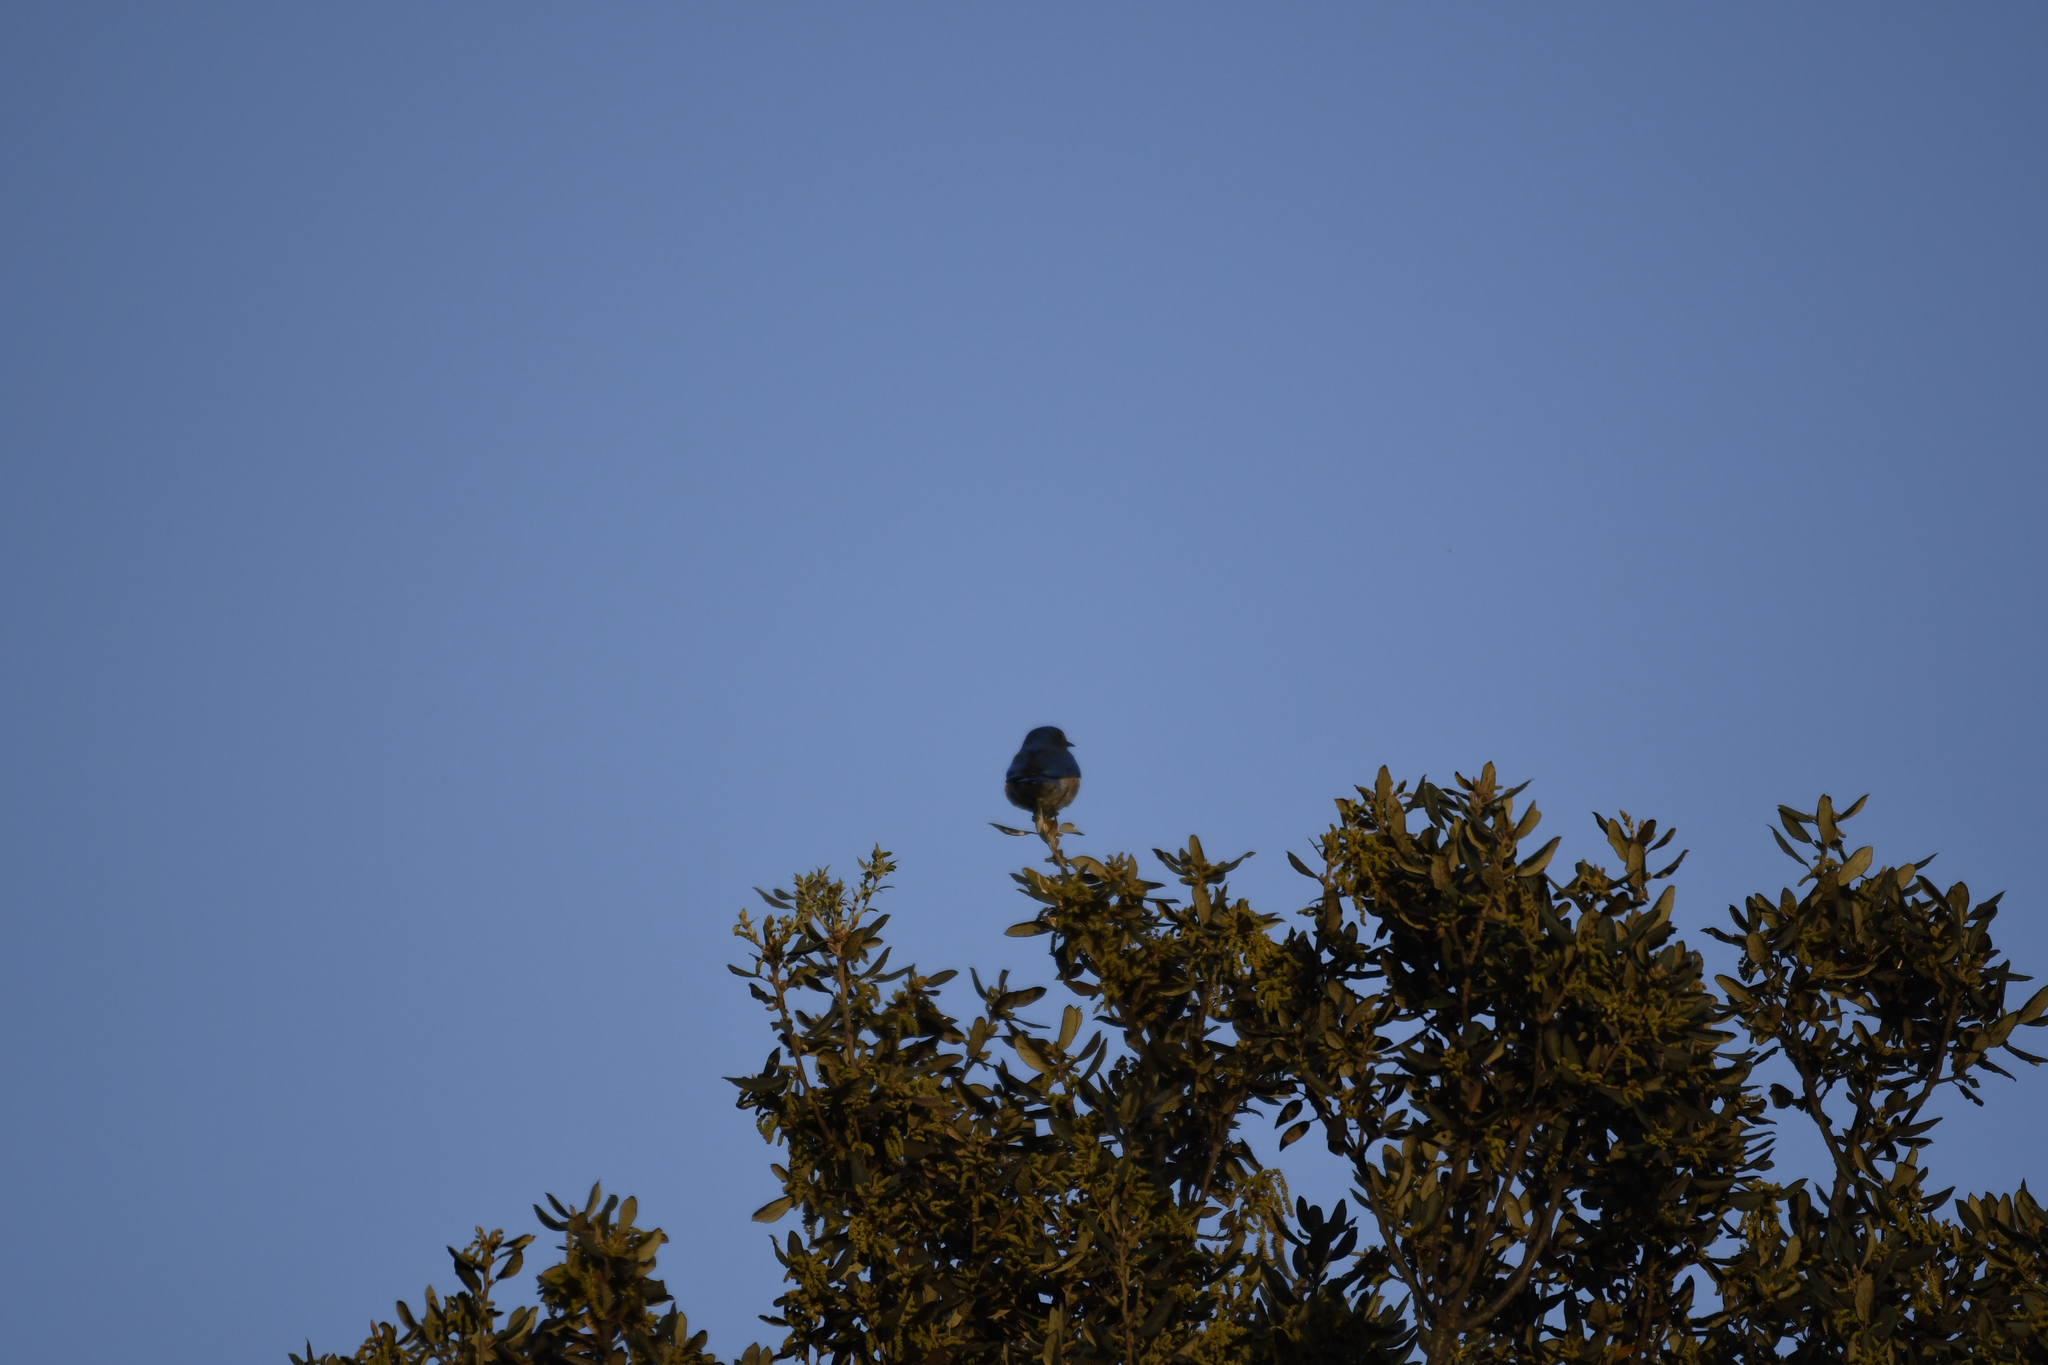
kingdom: Animalia
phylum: Chordata
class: Aves
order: Passeriformes
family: Turdidae
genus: Sialia
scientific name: Sialia mexicana
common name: Western bluebird
